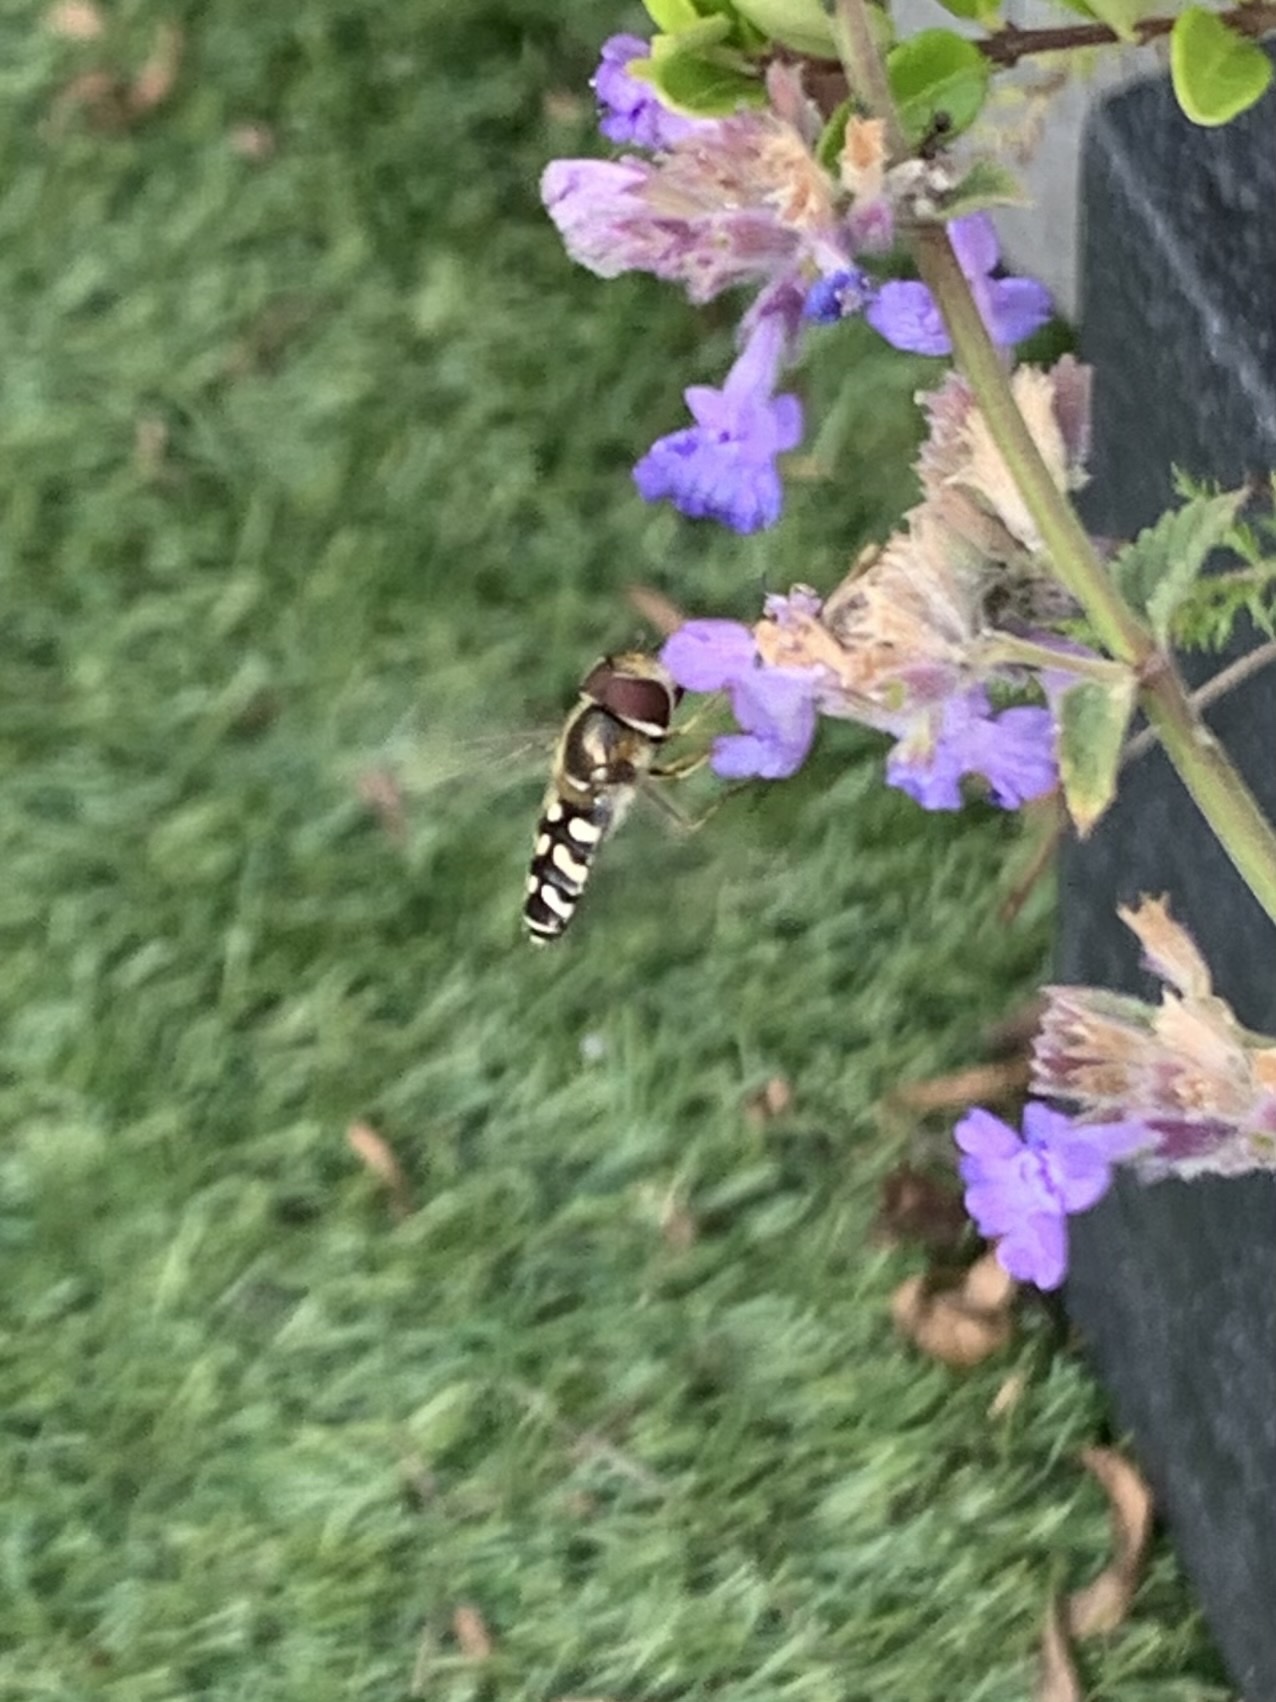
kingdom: Animalia
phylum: Arthropoda
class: Insecta
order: Diptera
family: Syrphidae
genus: Scaeva
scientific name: Scaeva pyrastri
